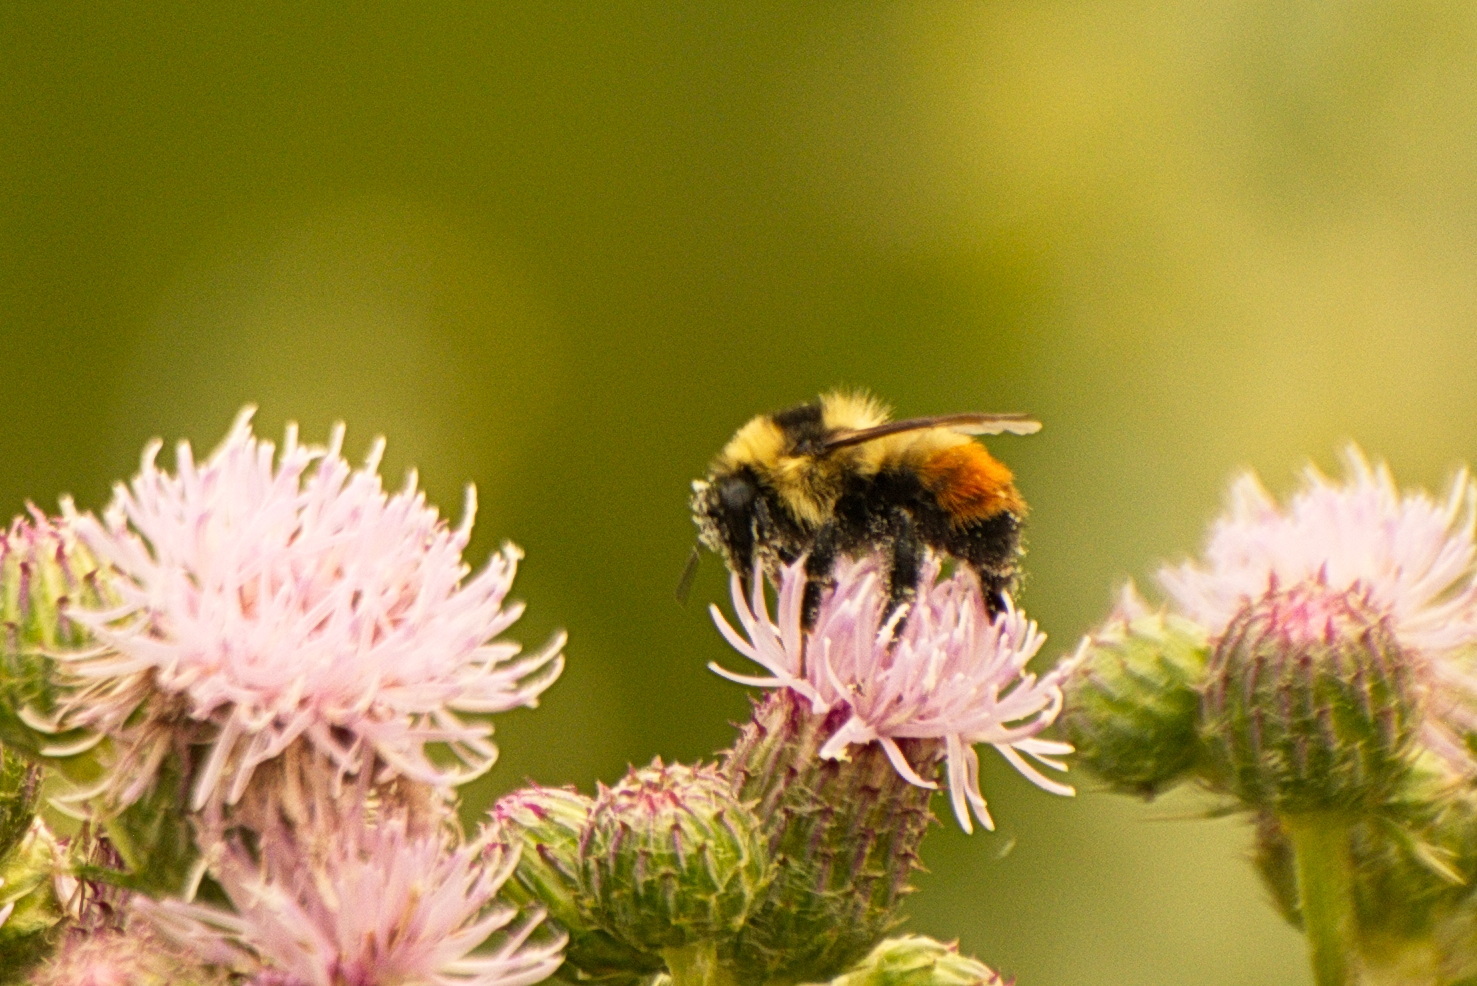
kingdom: Animalia
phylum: Arthropoda
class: Insecta
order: Hymenoptera
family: Apidae
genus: Bombus
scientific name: Bombus rufocinctus
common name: Red-belted bumble bee
